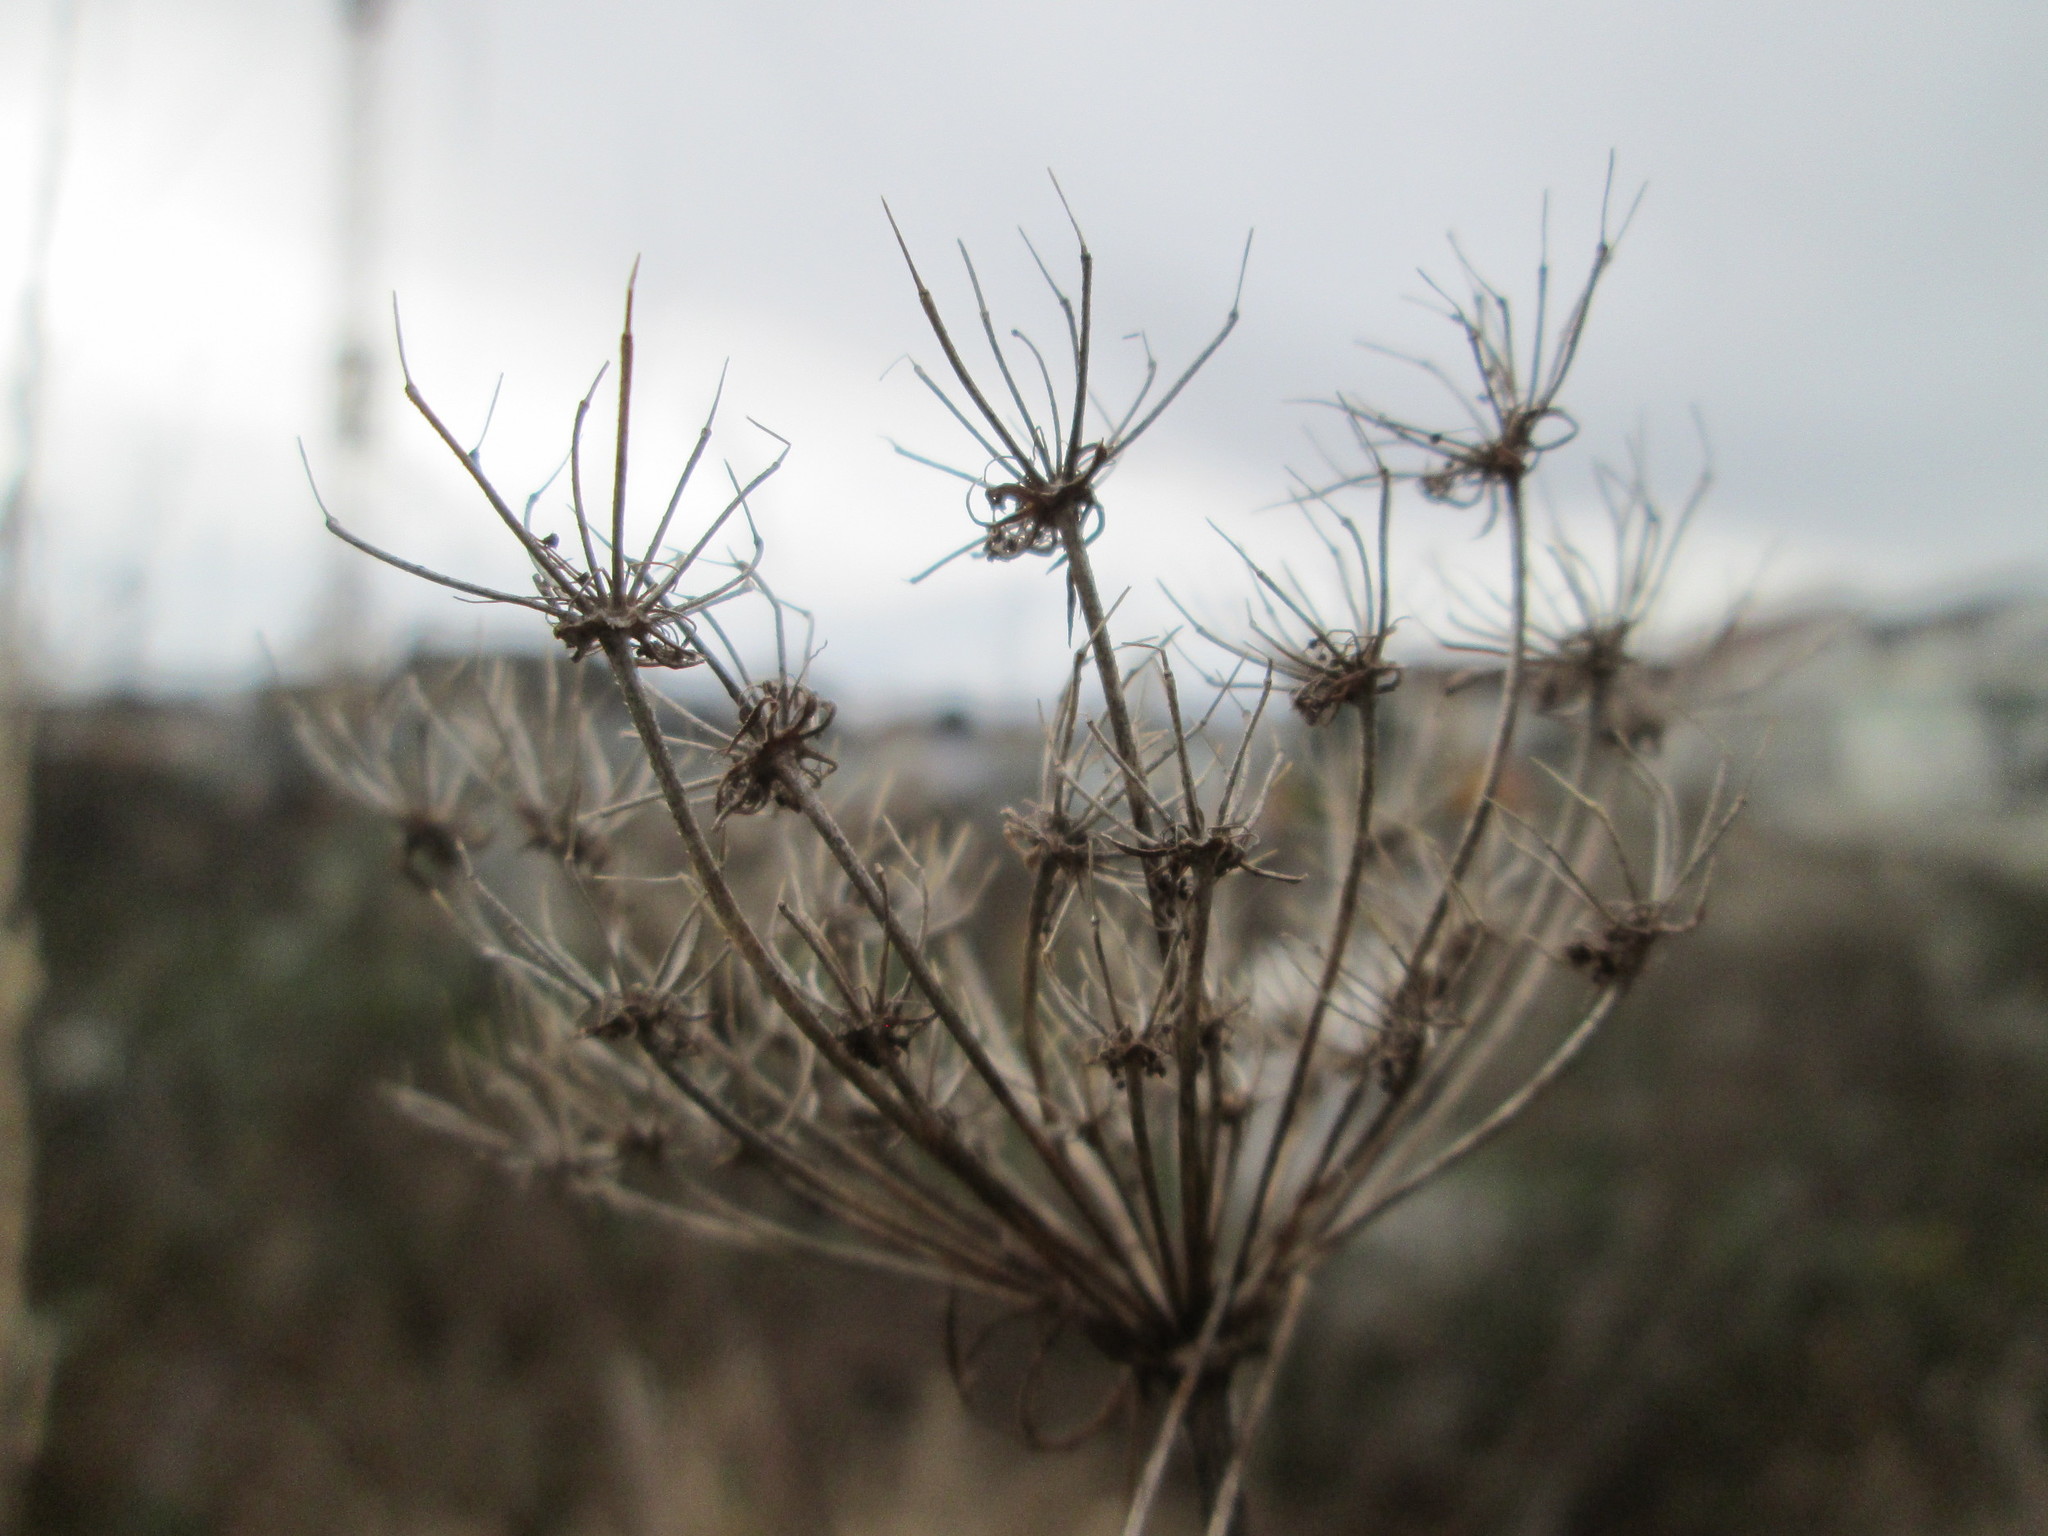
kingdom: Plantae
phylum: Tracheophyta
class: Magnoliopsida
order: Apiales
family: Apiaceae
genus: Daucus
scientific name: Daucus carota
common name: Wild carrot
